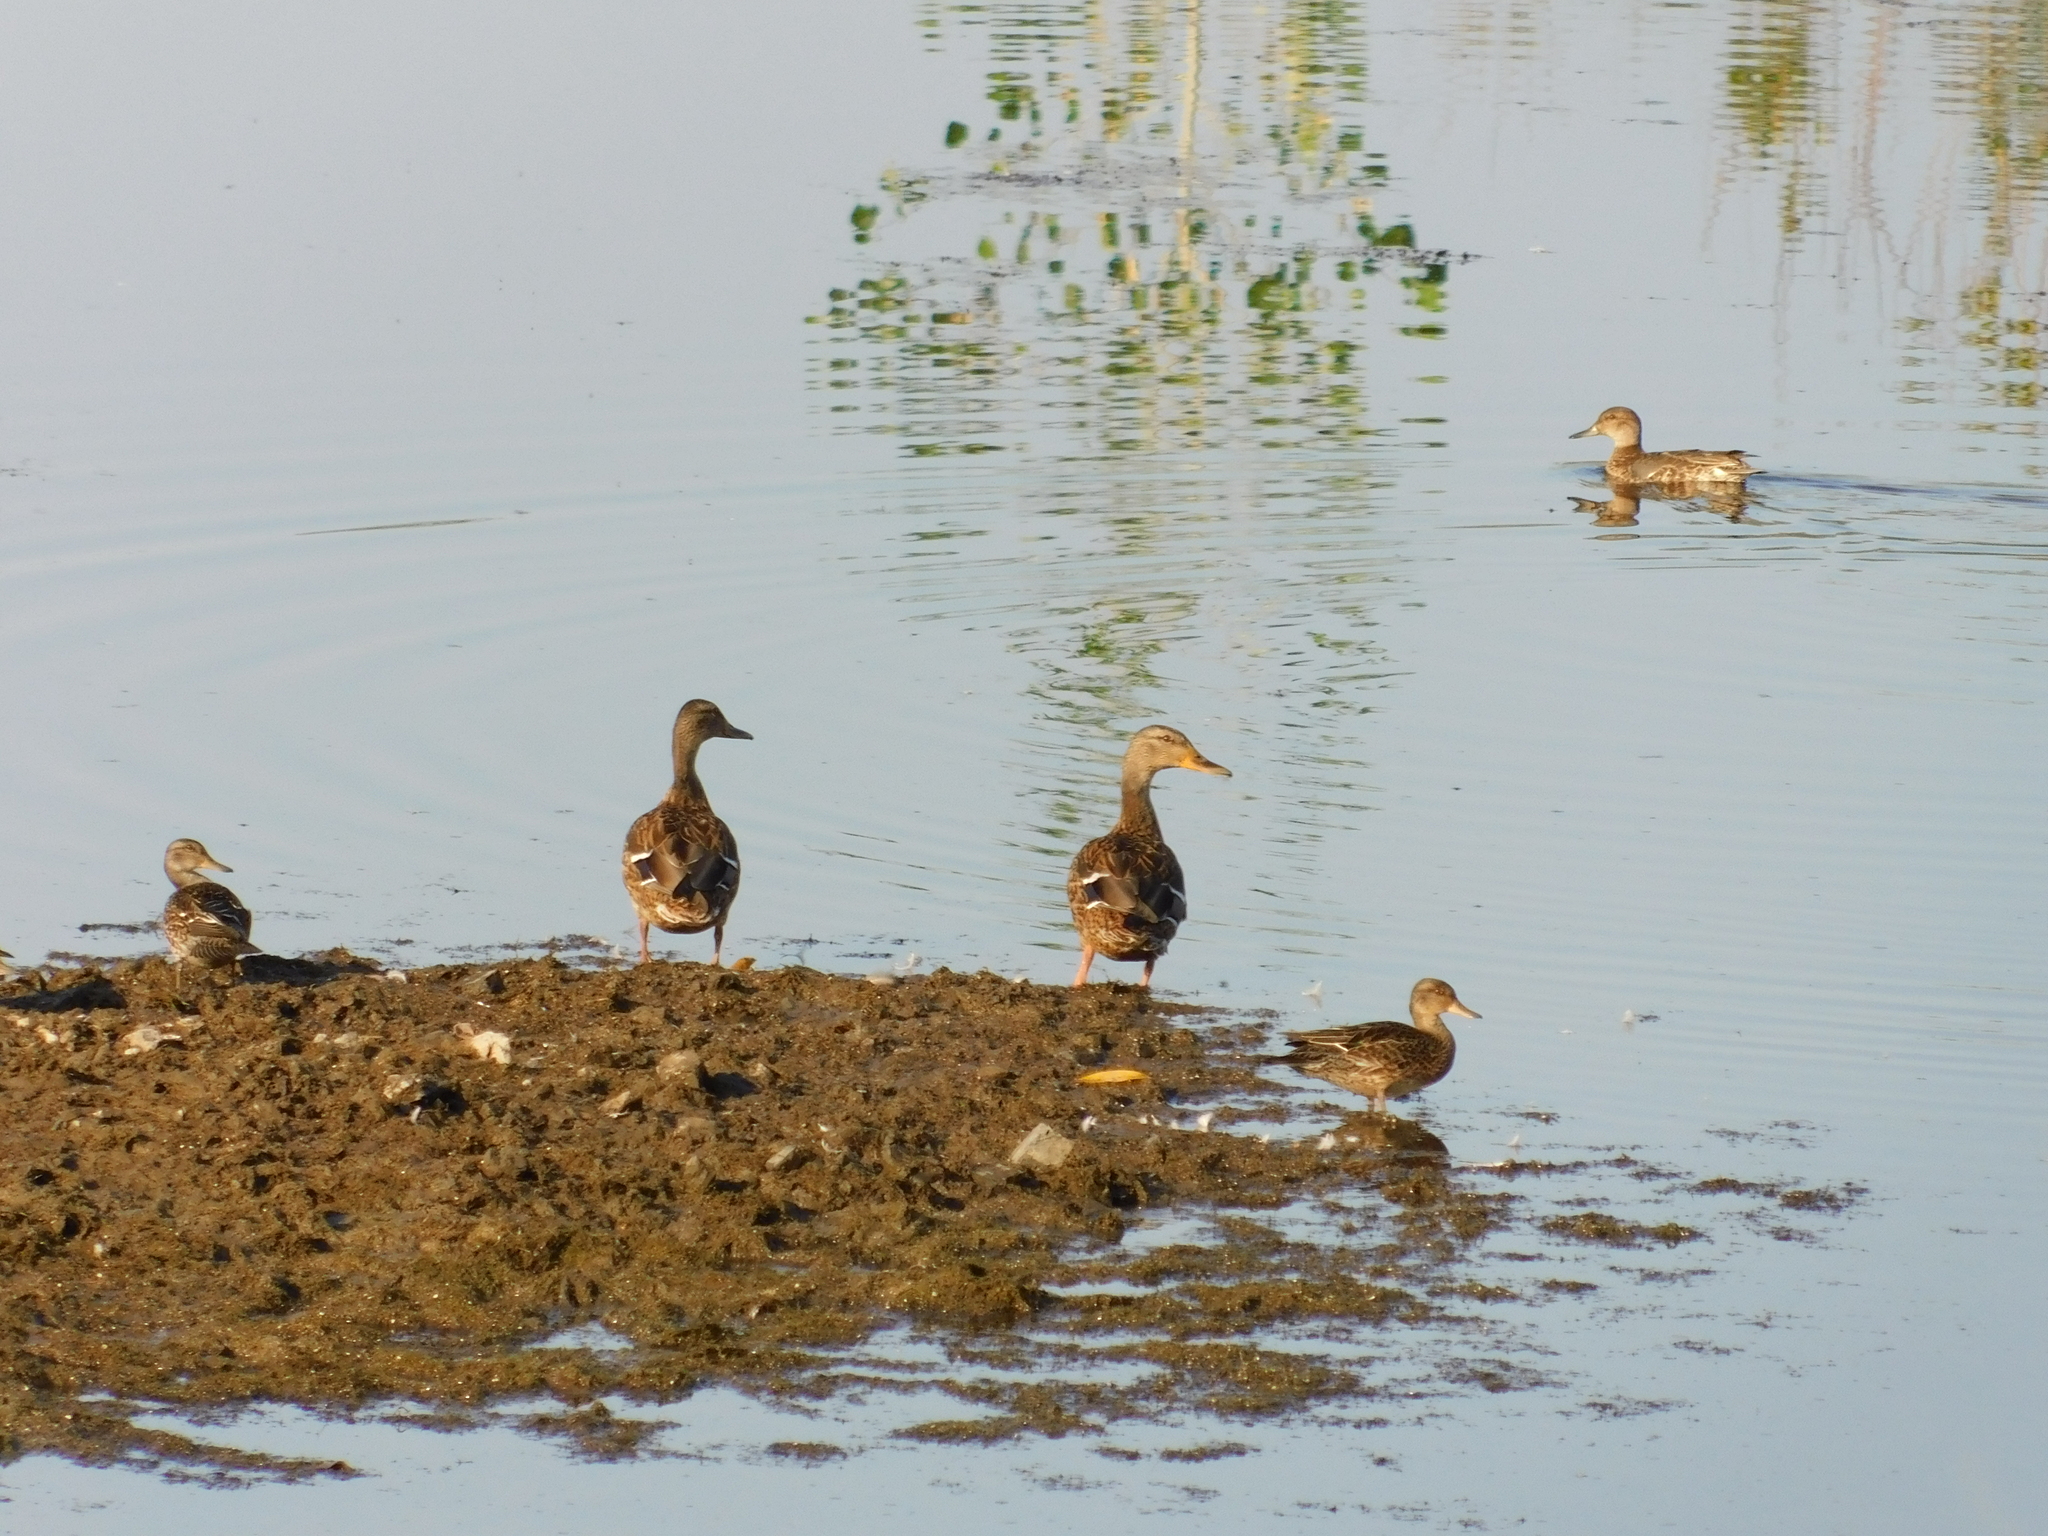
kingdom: Animalia
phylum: Chordata
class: Aves
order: Anseriformes
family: Anatidae
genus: Anas
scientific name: Anas platyrhynchos
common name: Mallard
